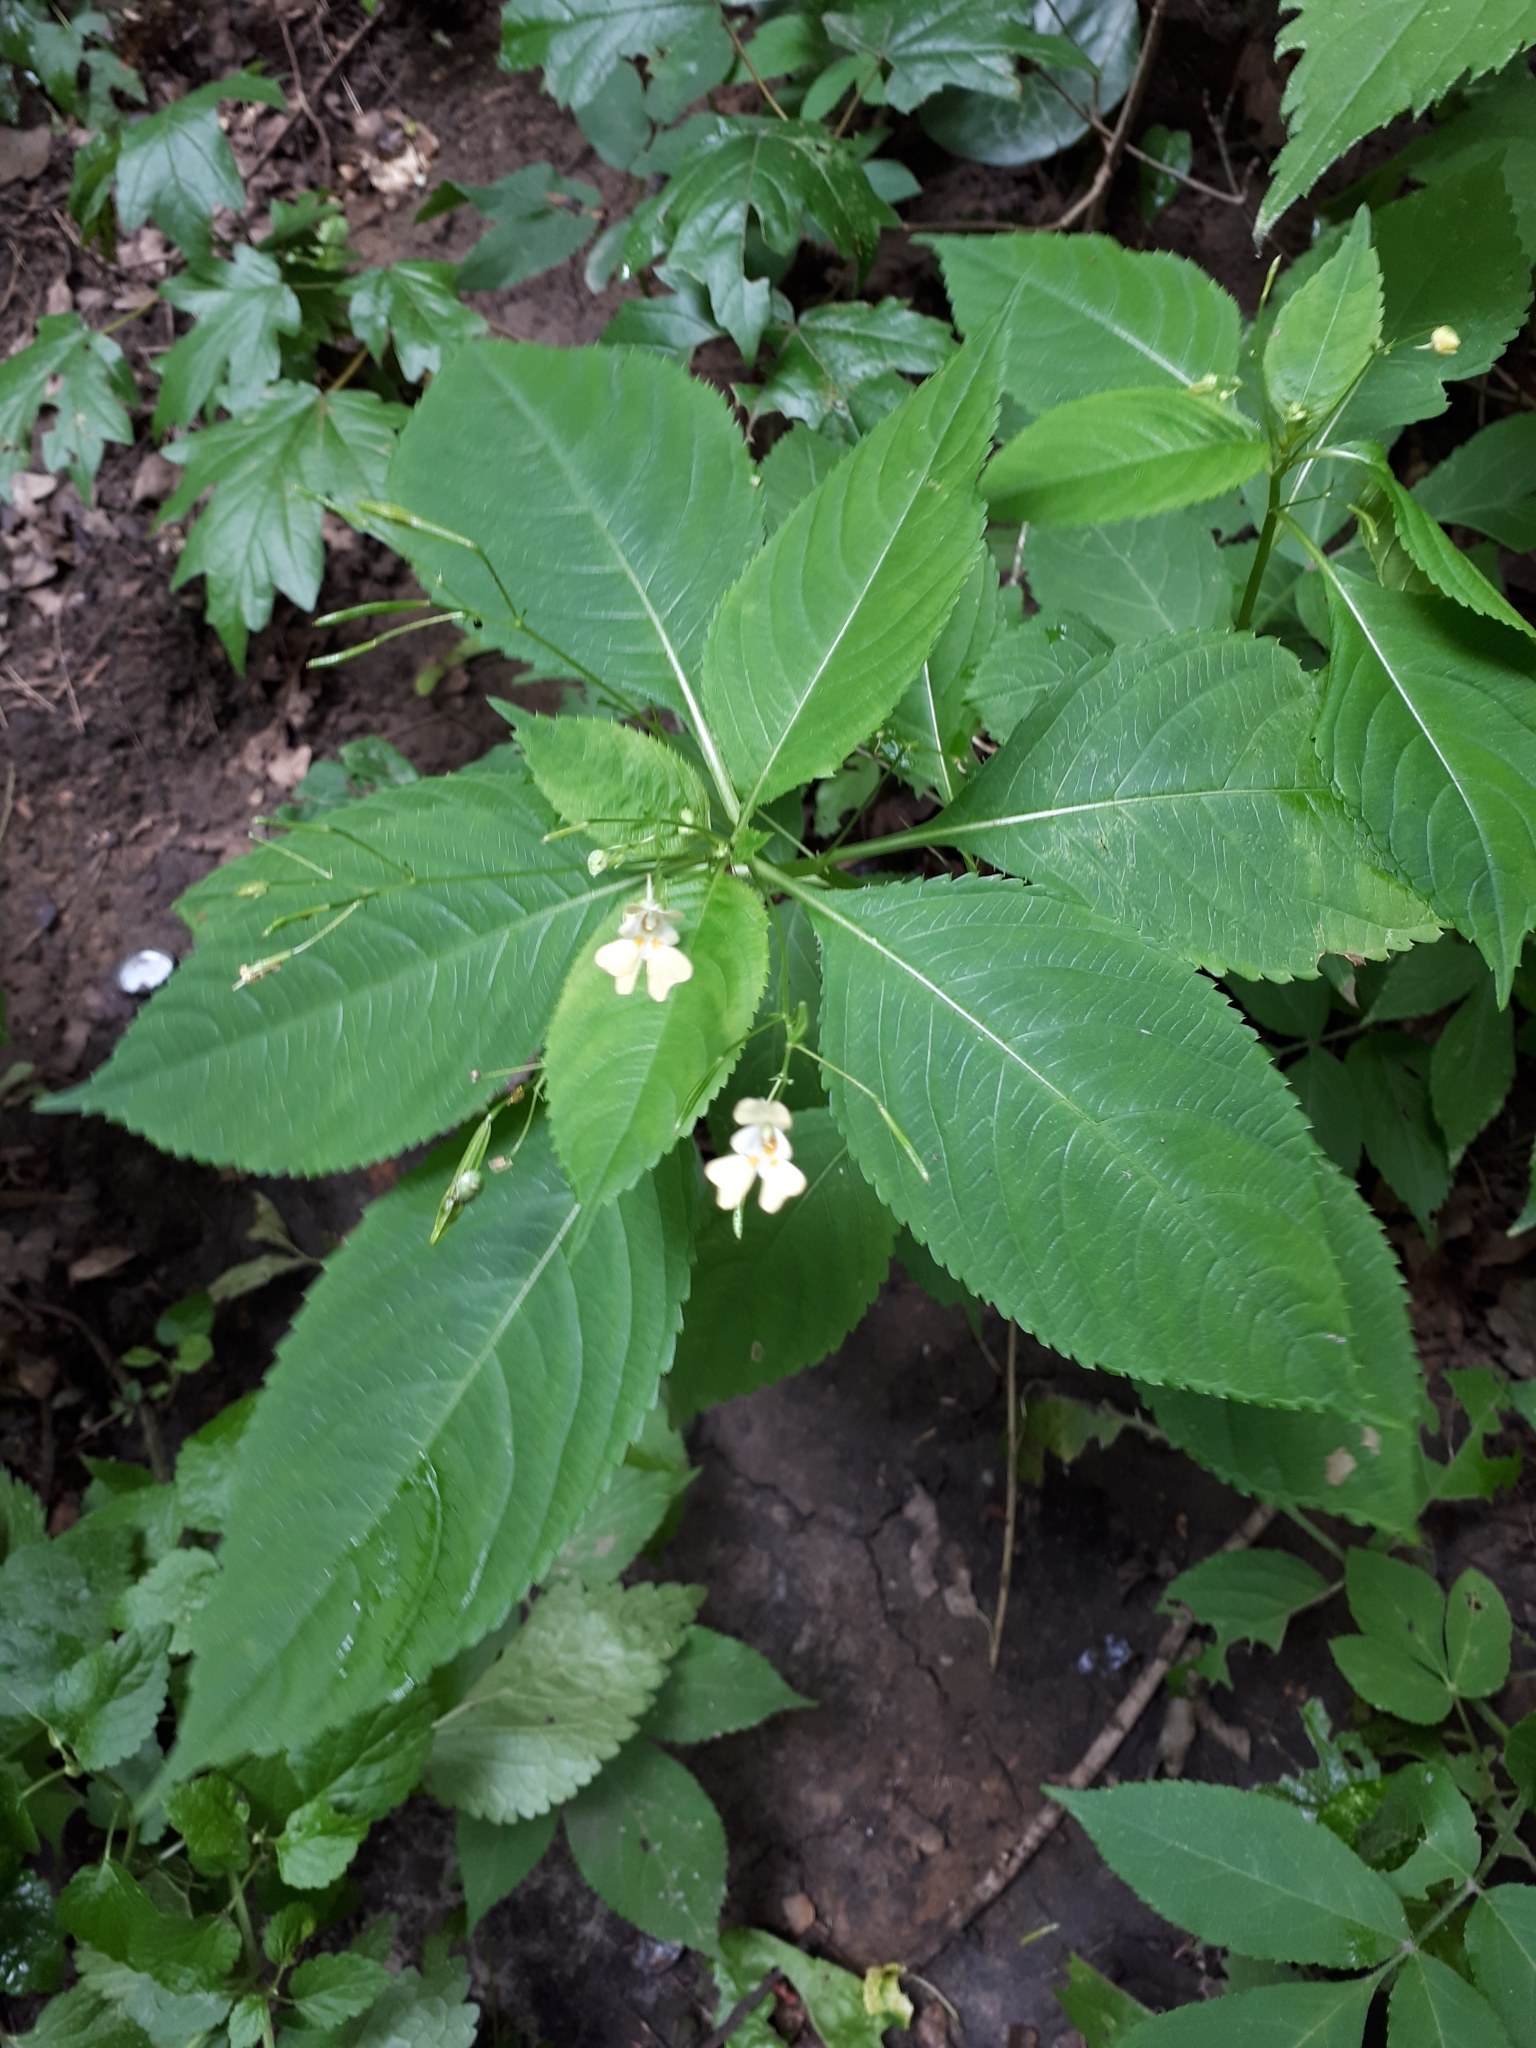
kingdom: Plantae
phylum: Tracheophyta
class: Magnoliopsida
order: Ericales
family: Balsaminaceae
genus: Impatiens
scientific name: Impatiens parviflora
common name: Small balsam
